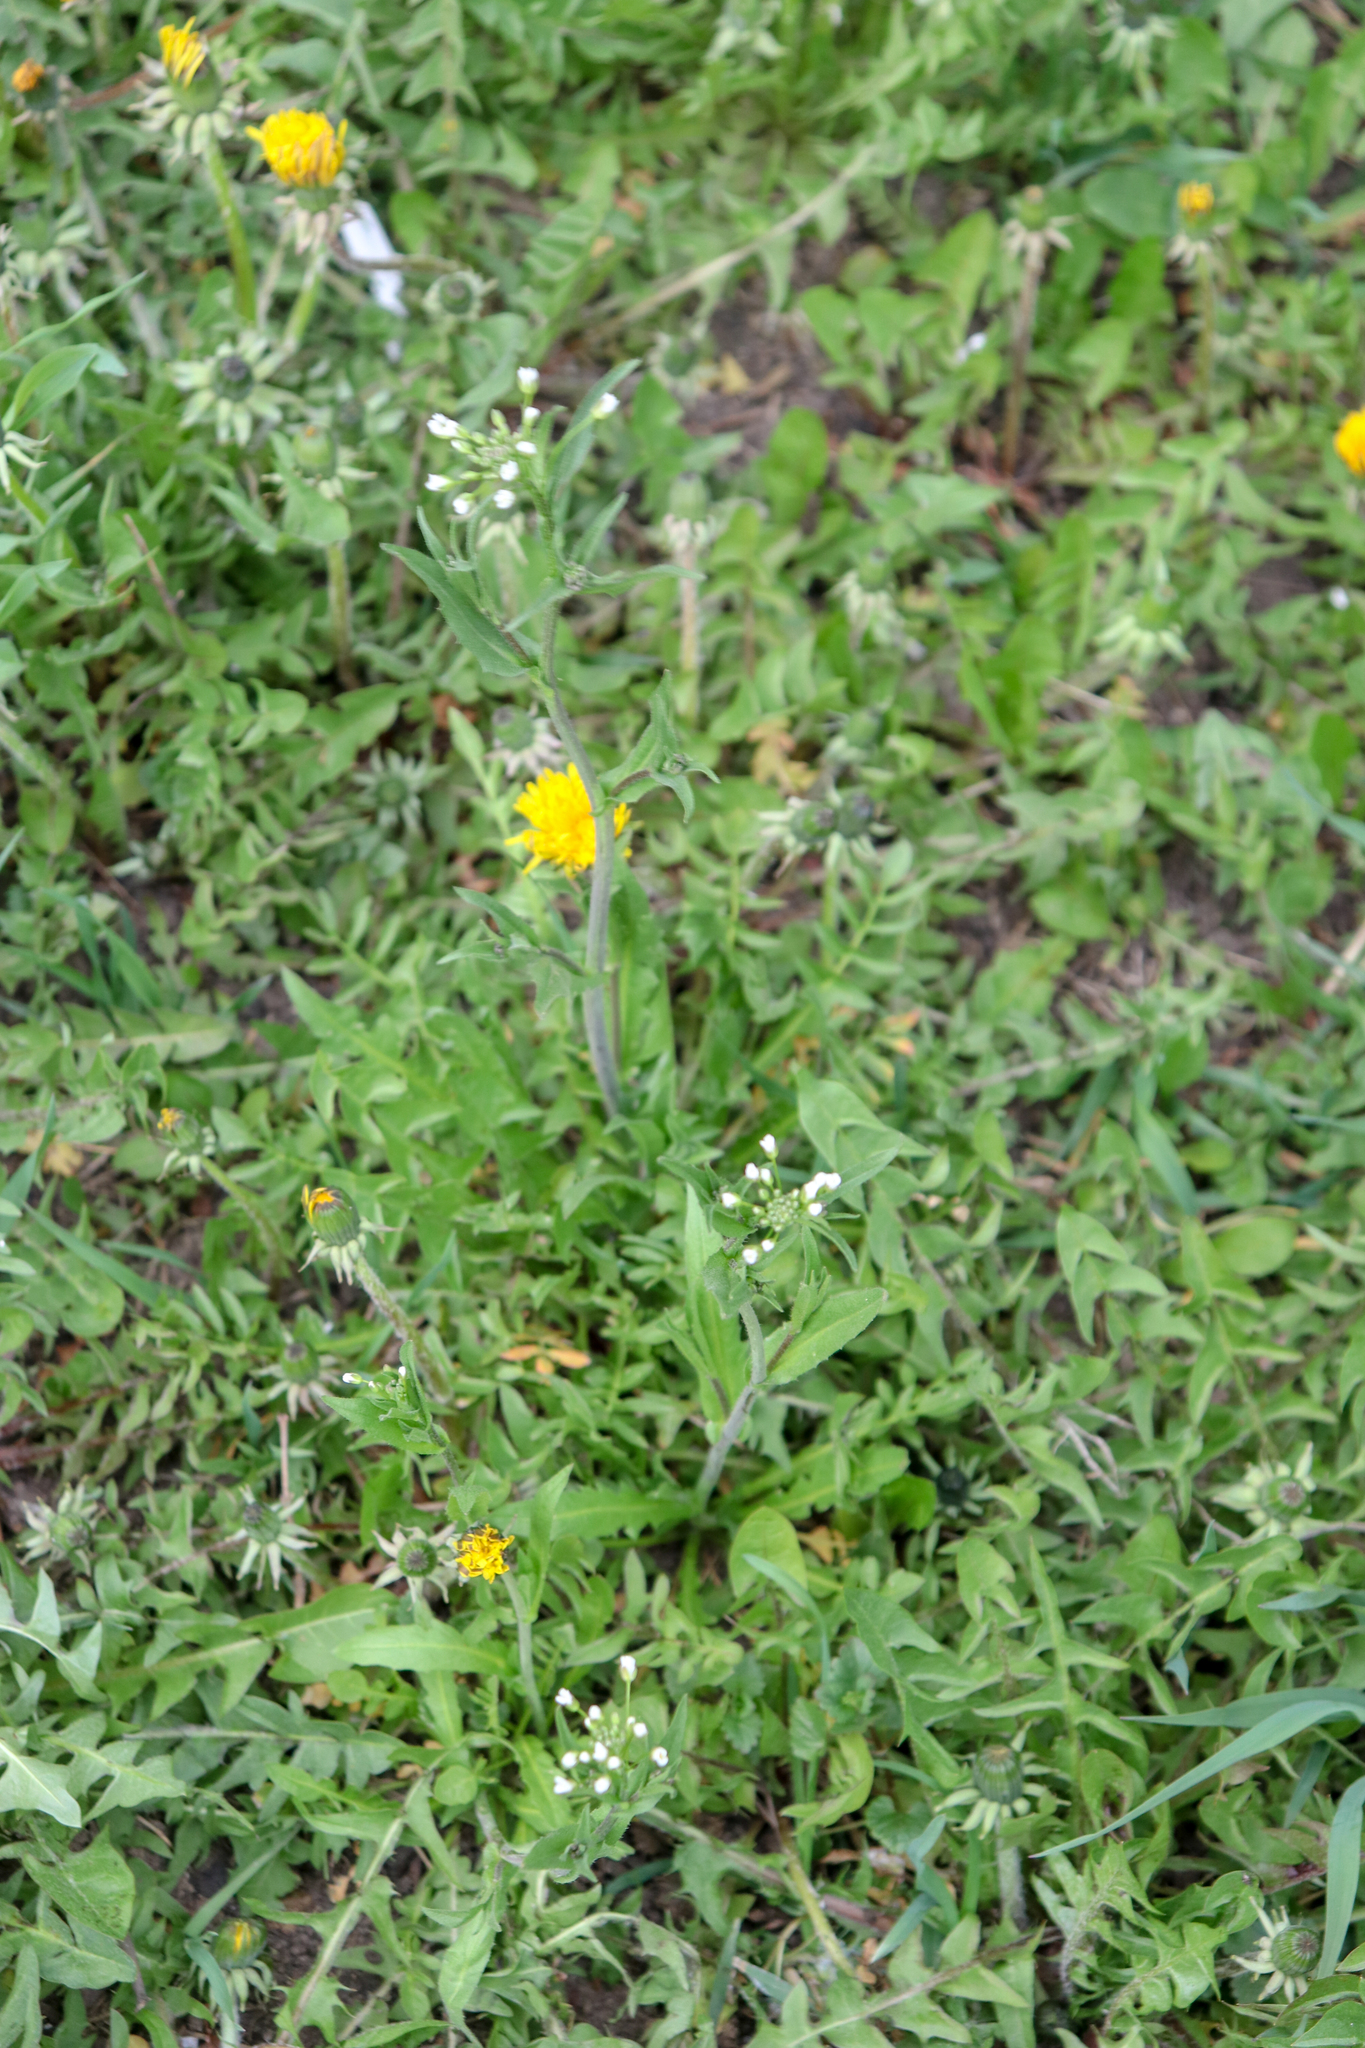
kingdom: Plantae
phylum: Tracheophyta
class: Magnoliopsida
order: Brassicales
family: Brassicaceae
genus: Capsella
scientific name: Capsella bursa-pastoris
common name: Shepherd's purse
